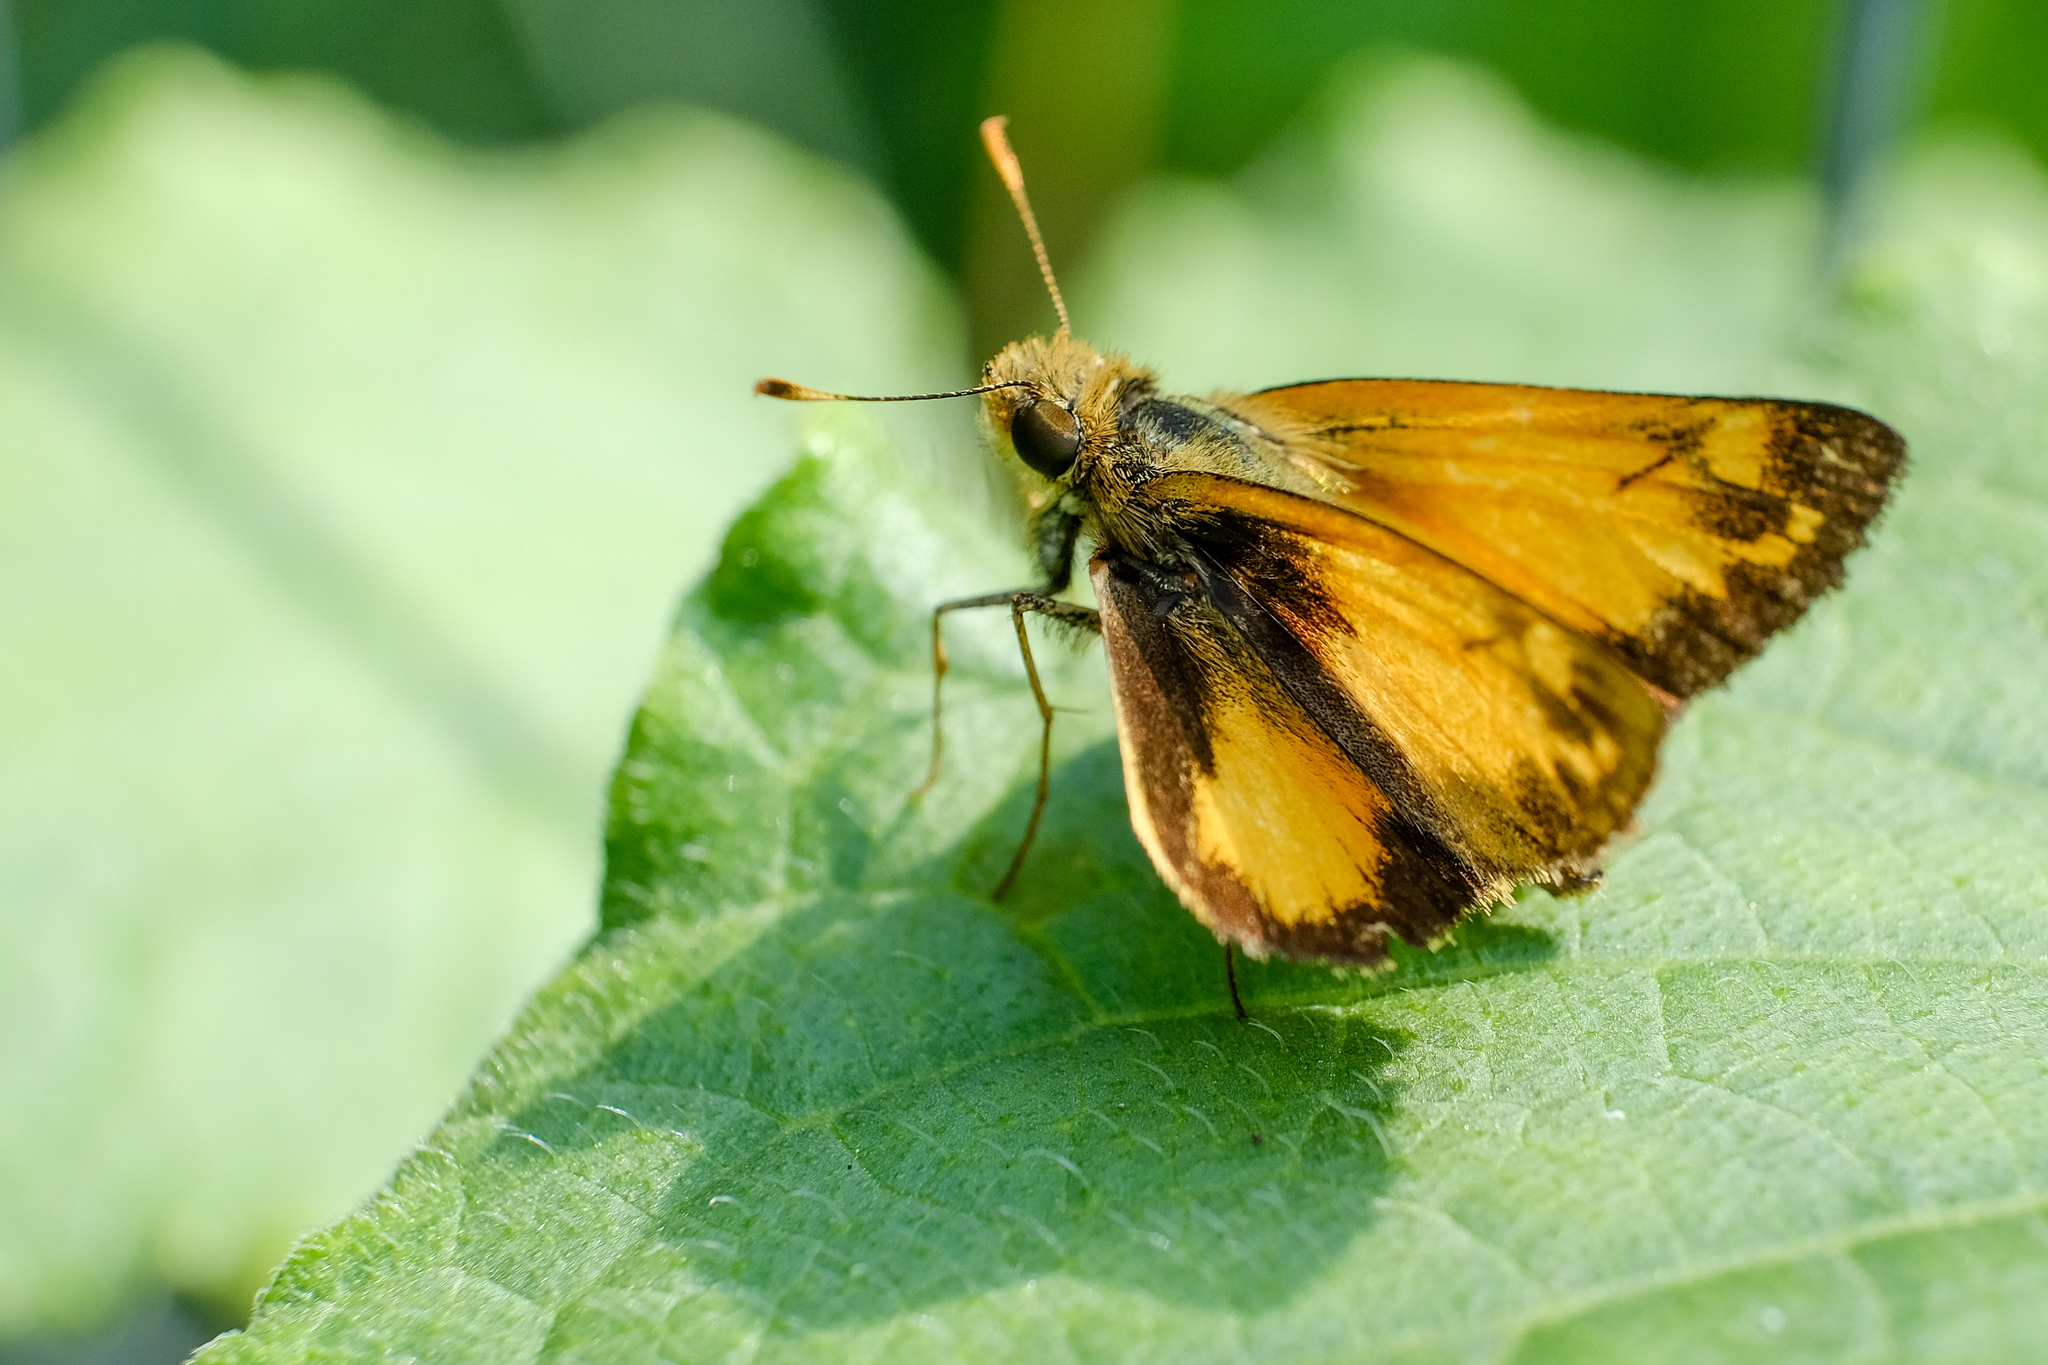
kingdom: Animalia
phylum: Arthropoda
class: Insecta
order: Lepidoptera
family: Hesperiidae
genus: Lon
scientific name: Lon zabulon
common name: Zabulon skipper
